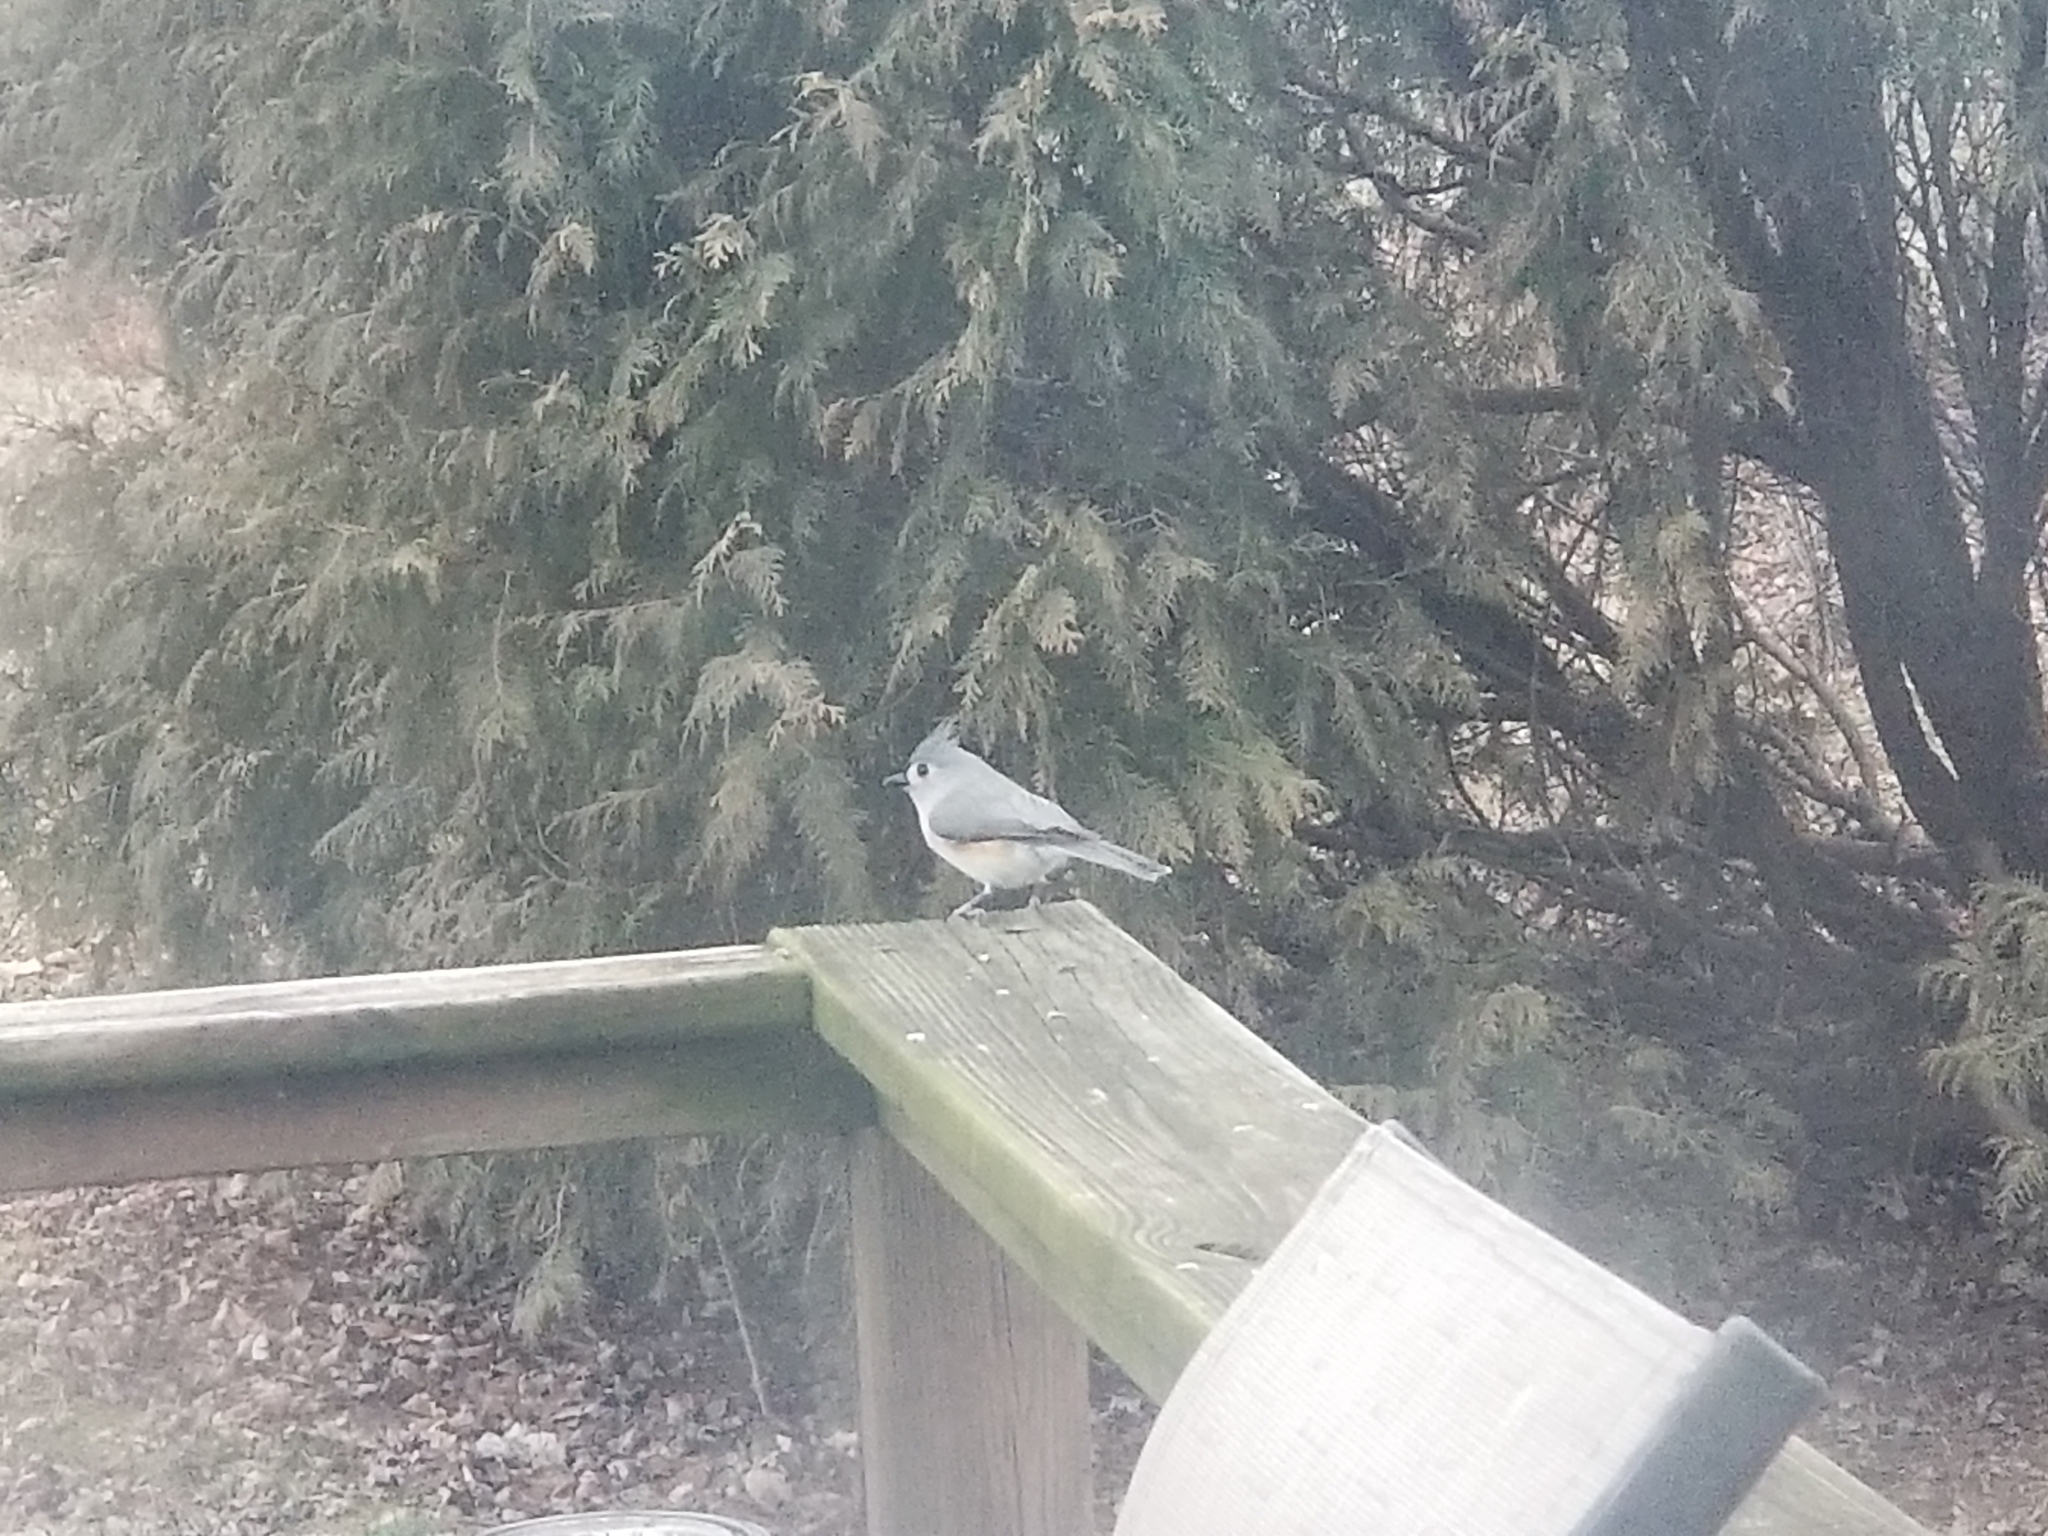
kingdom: Animalia
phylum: Chordata
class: Aves
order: Passeriformes
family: Paridae
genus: Baeolophus
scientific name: Baeolophus bicolor
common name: Tufted titmouse
